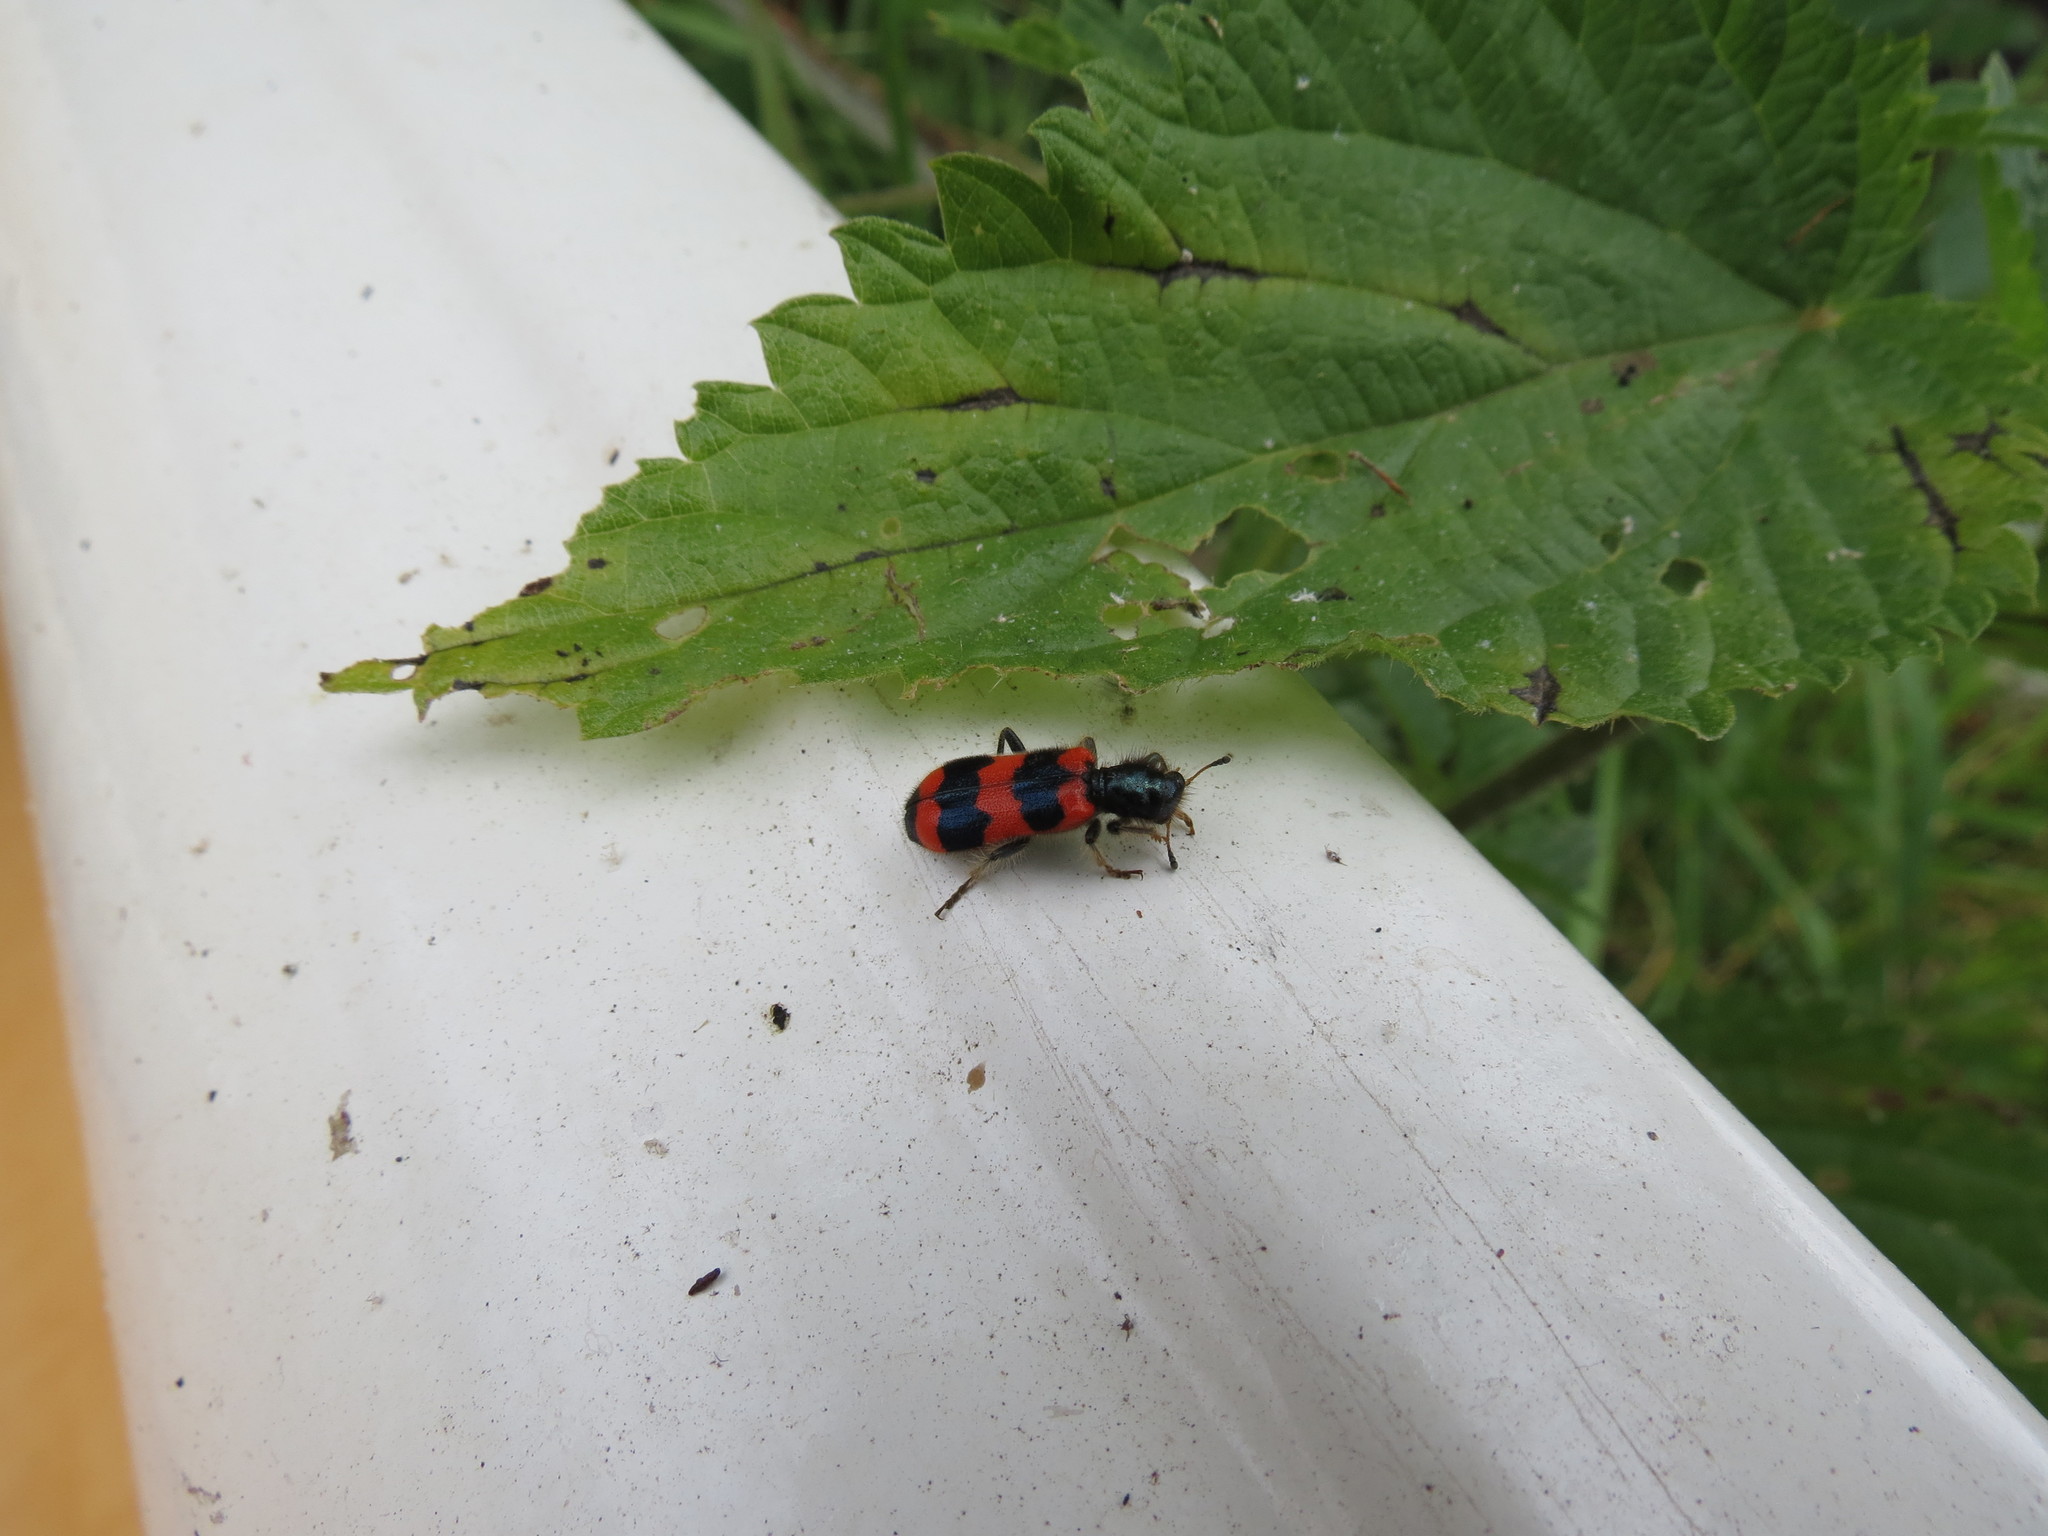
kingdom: Animalia
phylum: Arthropoda
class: Insecta
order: Coleoptera
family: Cleridae
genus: Trichodes
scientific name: Trichodes apiarius
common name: Bee-eating beetle
